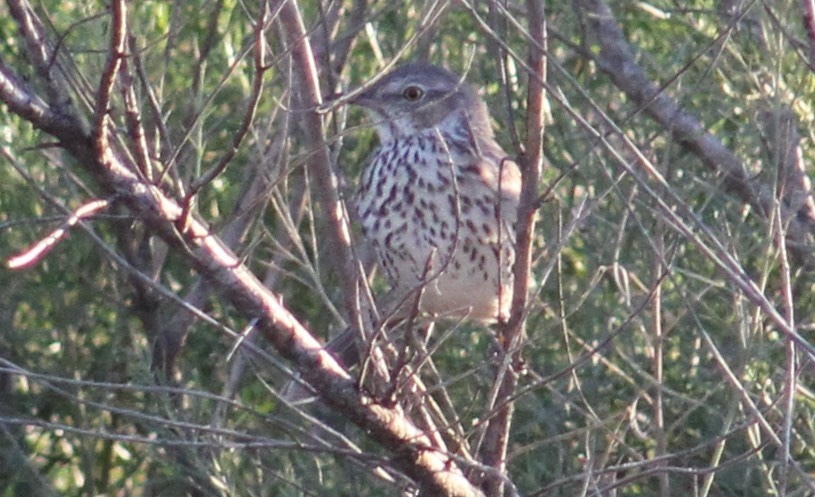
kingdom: Animalia
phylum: Chordata
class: Aves
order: Passeriformes
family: Mimidae
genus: Oreoscoptes
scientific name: Oreoscoptes montanus
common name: Sage thrasher
